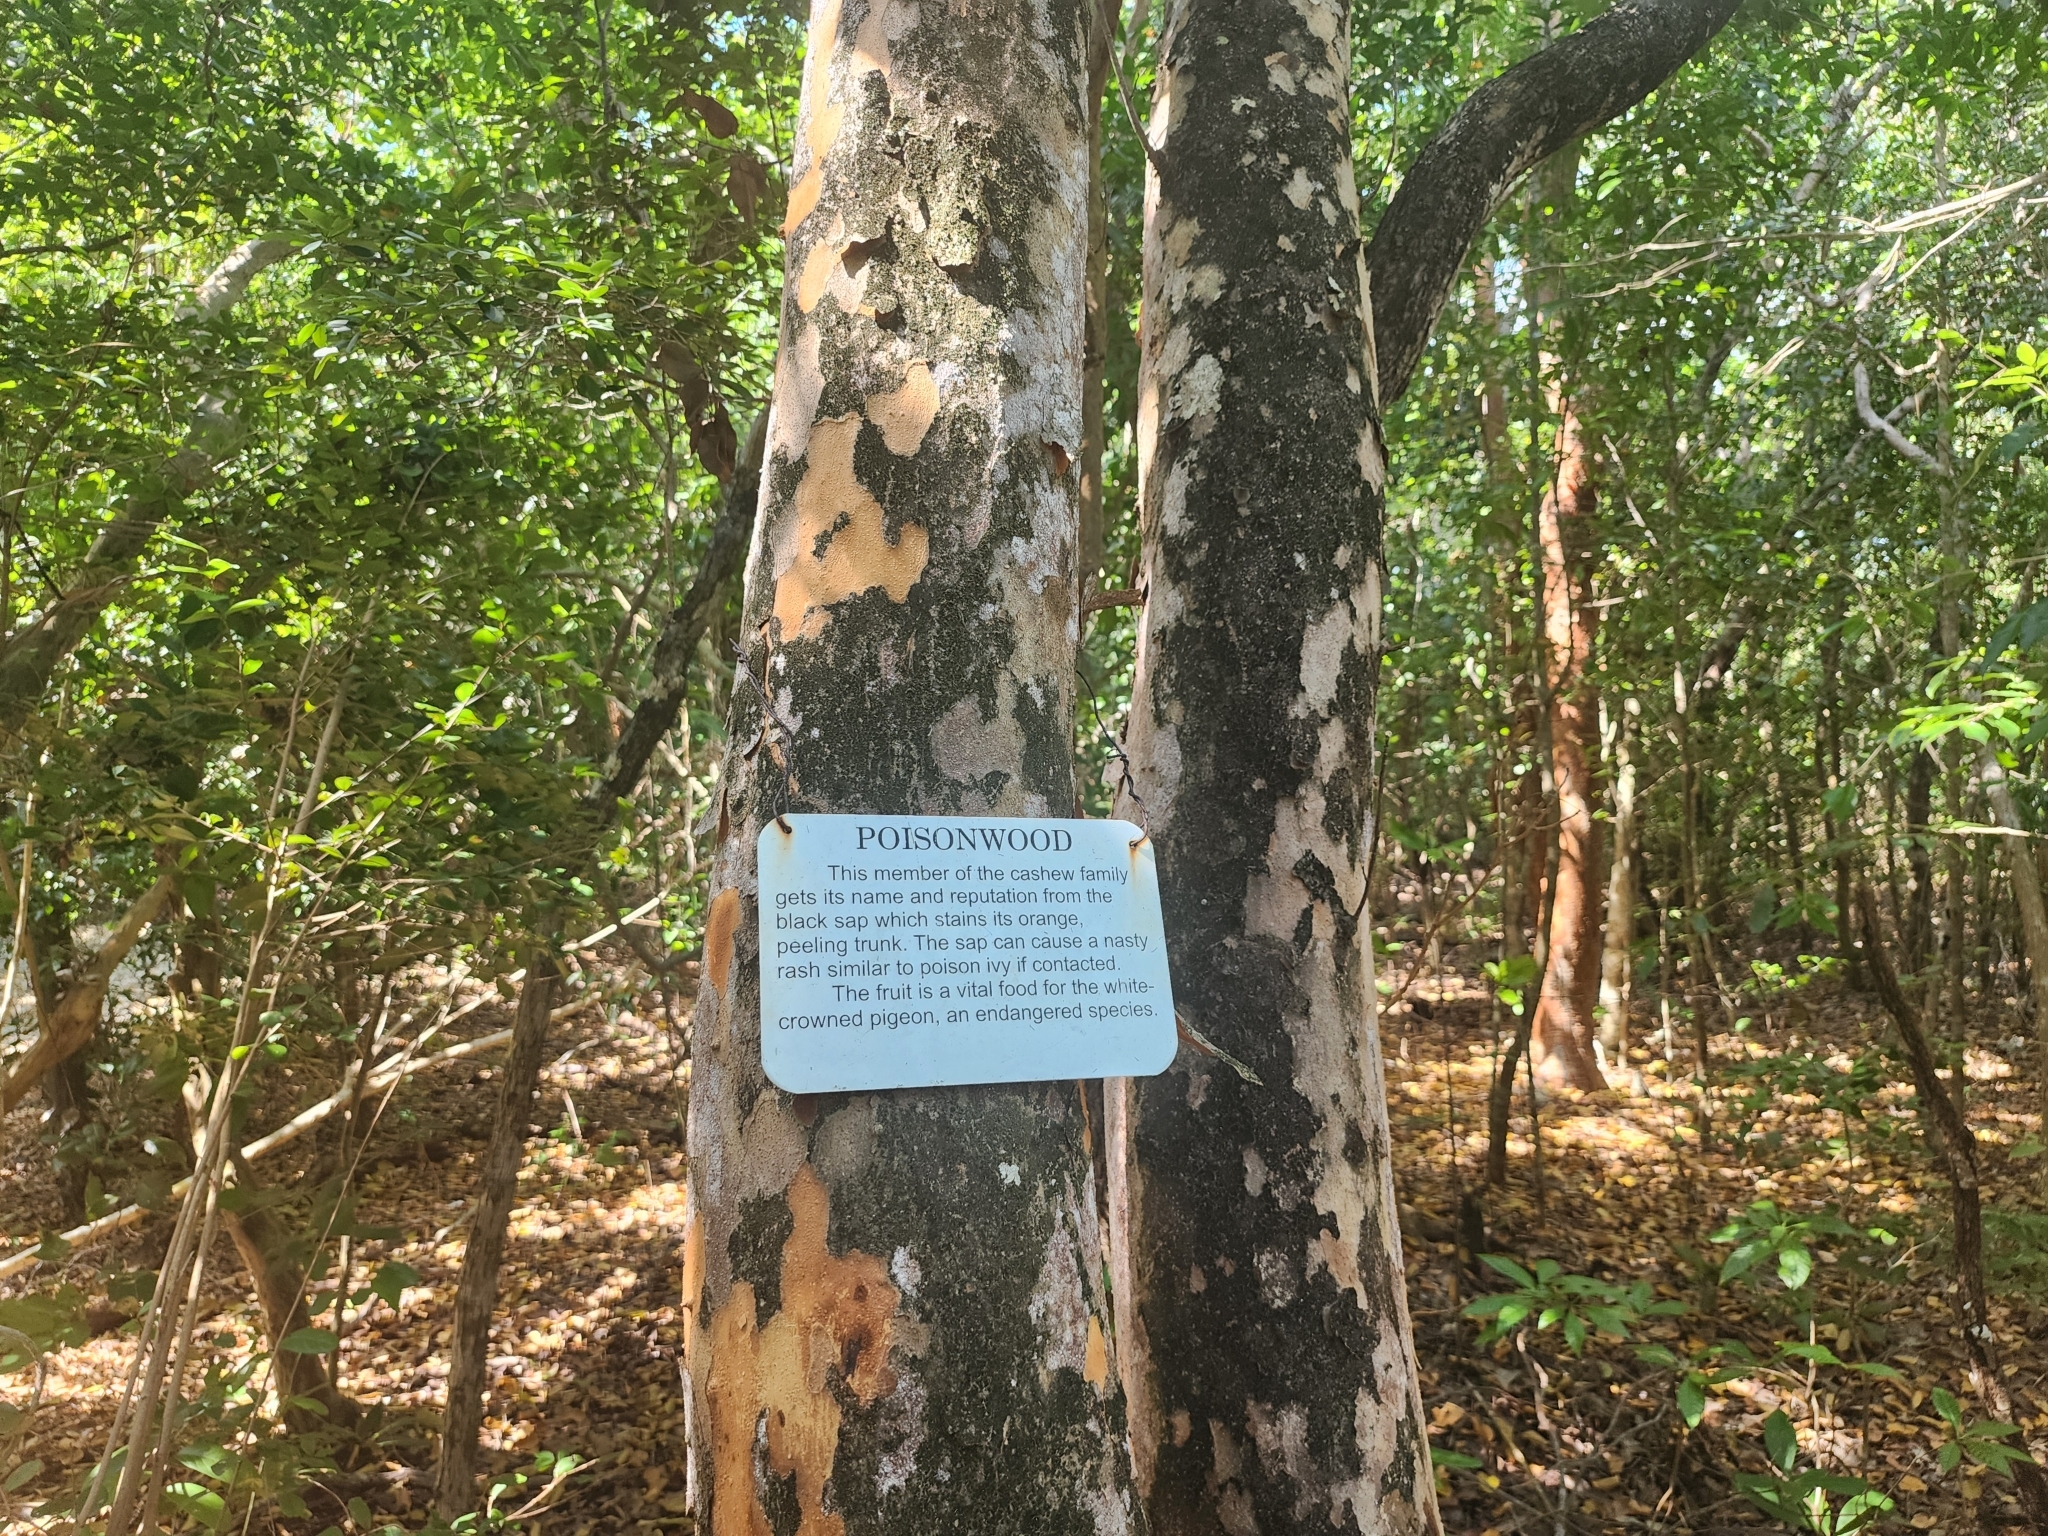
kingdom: Plantae
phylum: Tracheophyta
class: Magnoliopsida
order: Sapindales
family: Anacardiaceae
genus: Metopium
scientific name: Metopium toxiferum
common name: Florida poisontree
